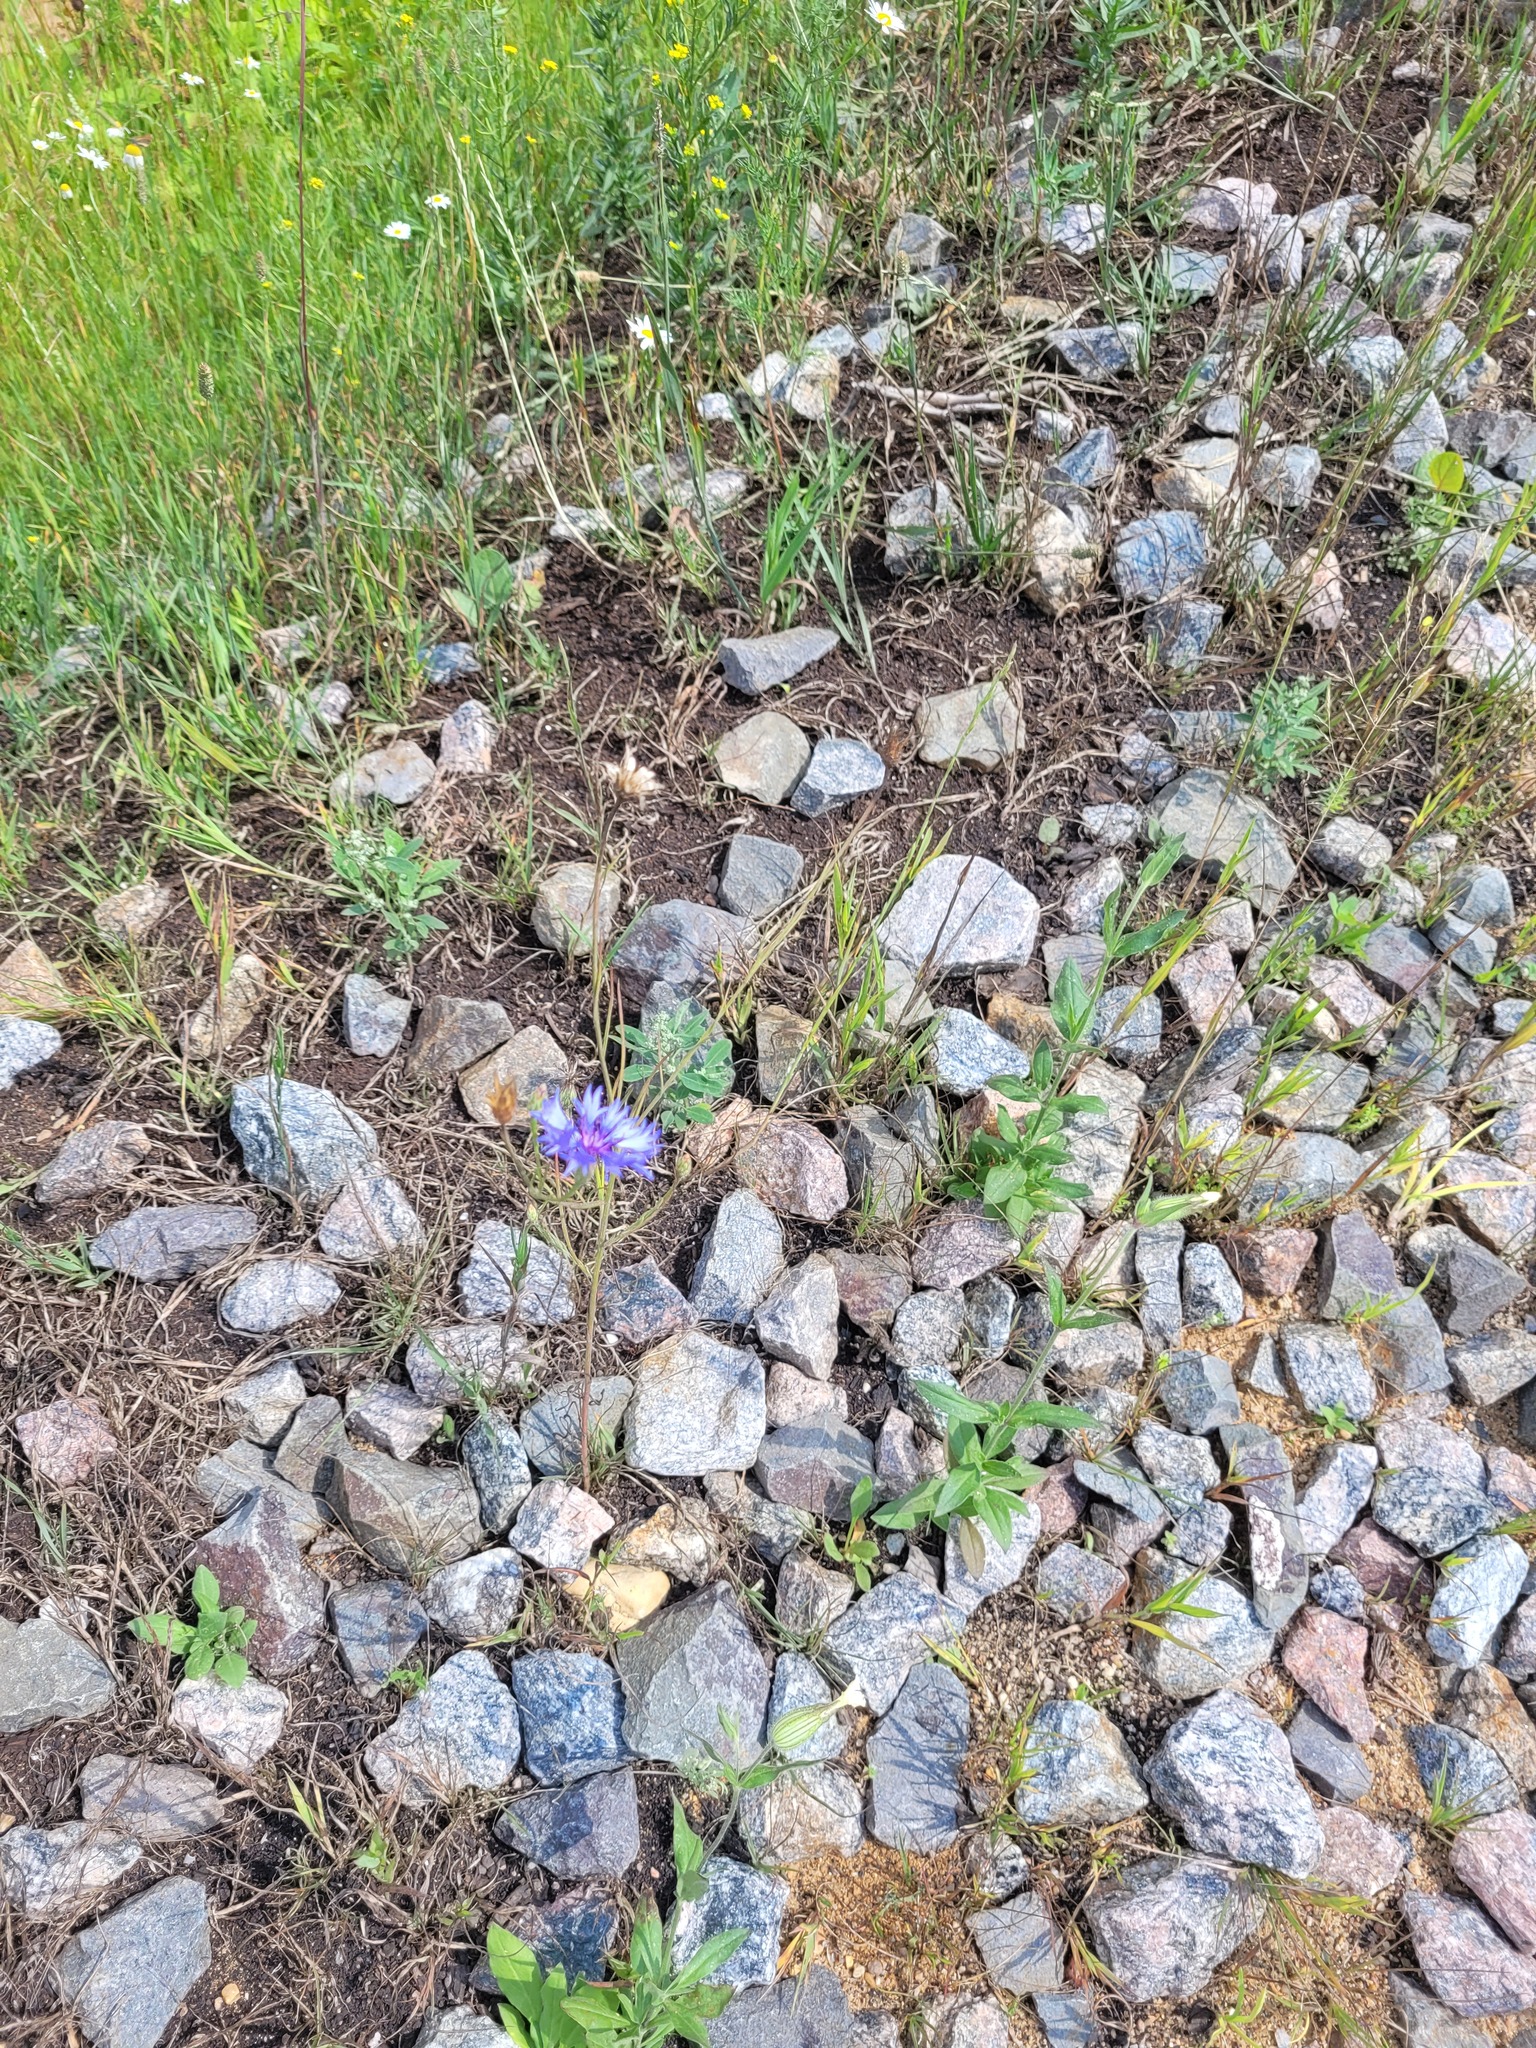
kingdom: Plantae
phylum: Tracheophyta
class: Magnoliopsida
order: Asterales
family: Asteraceae
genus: Centaurea
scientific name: Centaurea cyanus
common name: Cornflower
